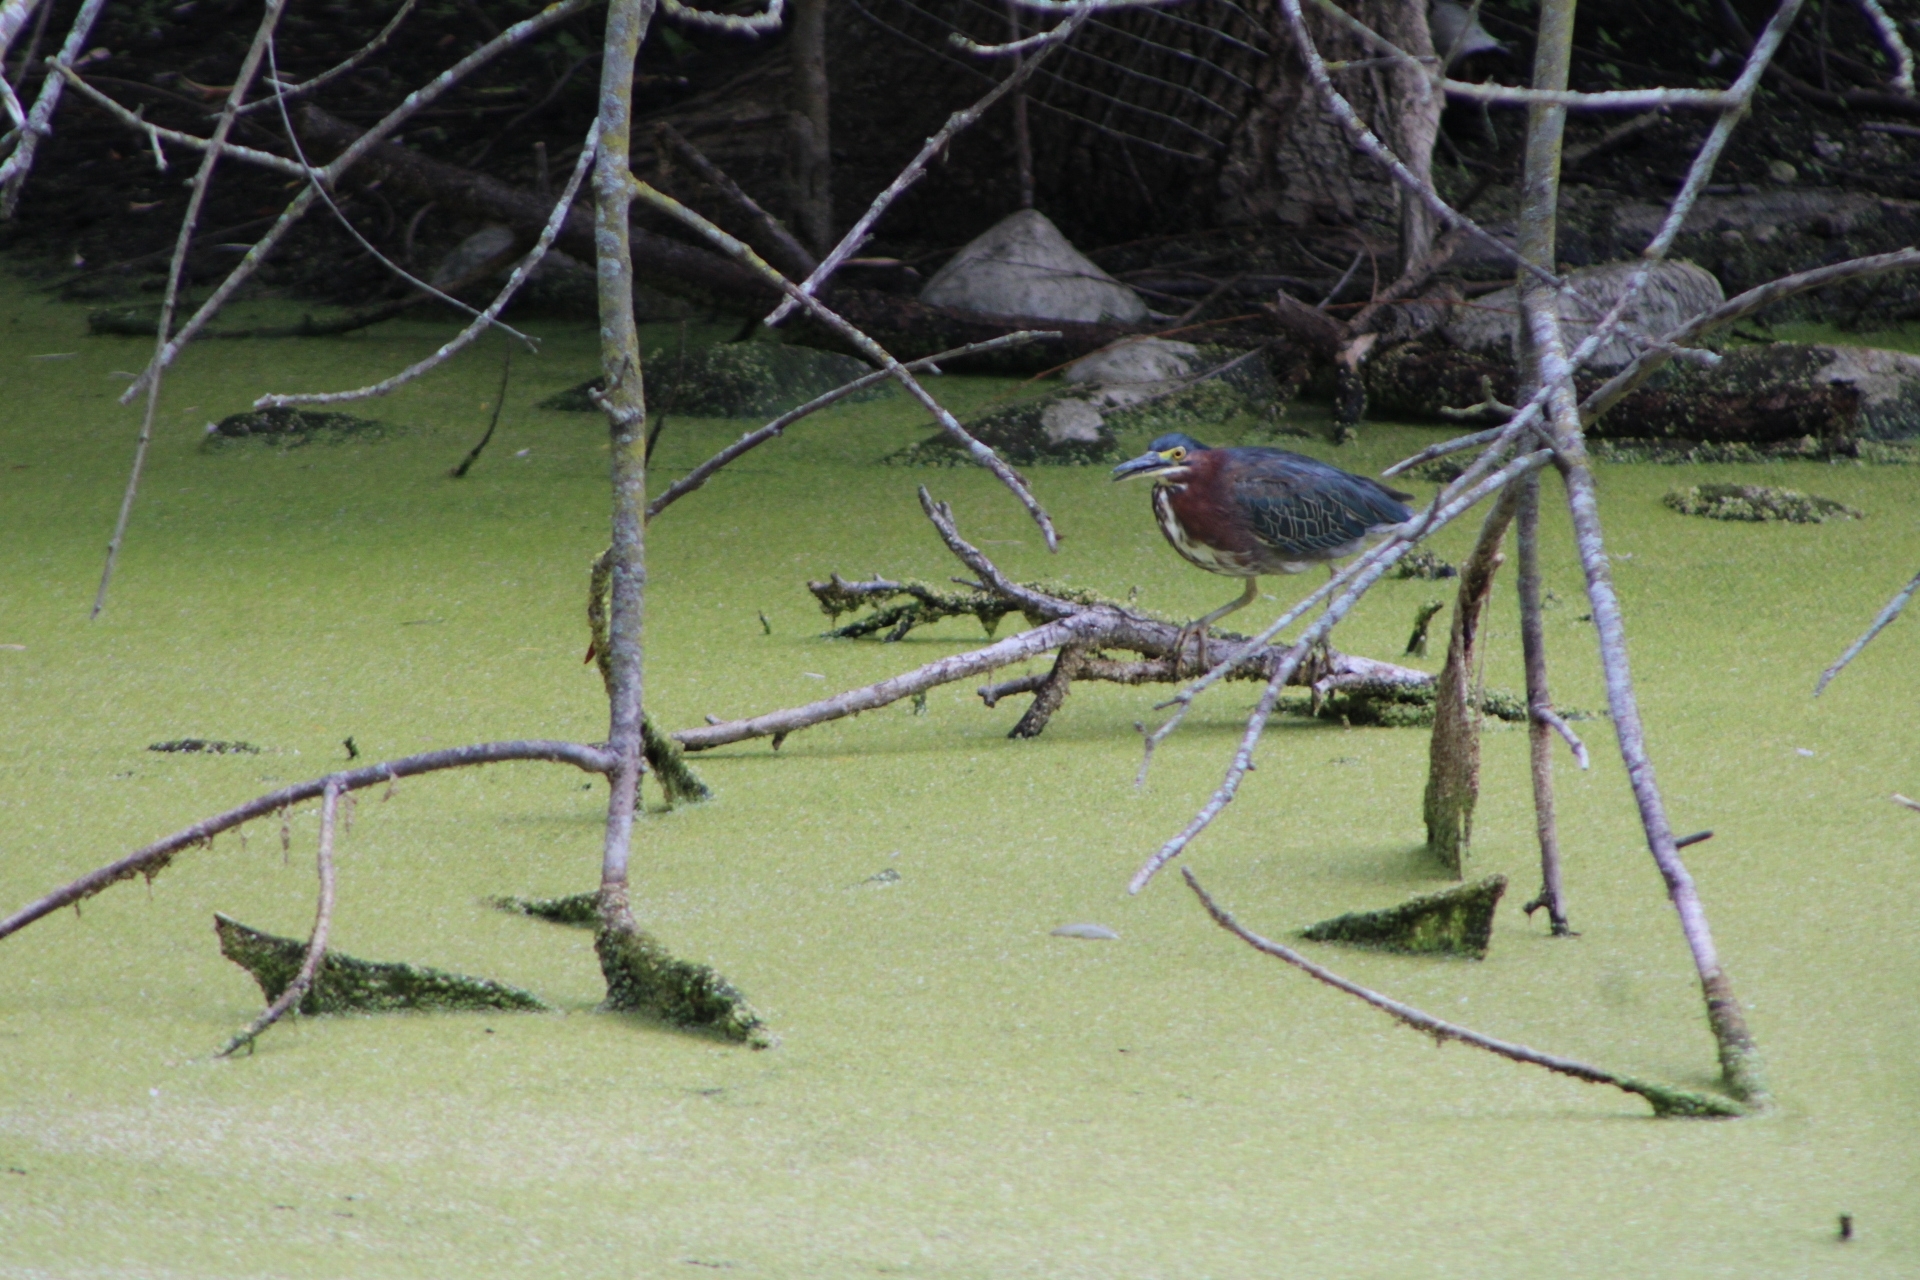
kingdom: Animalia
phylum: Chordata
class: Aves
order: Pelecaniformes
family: Ardeidae
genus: Butorides
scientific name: Butorides virescens
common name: Green heron
